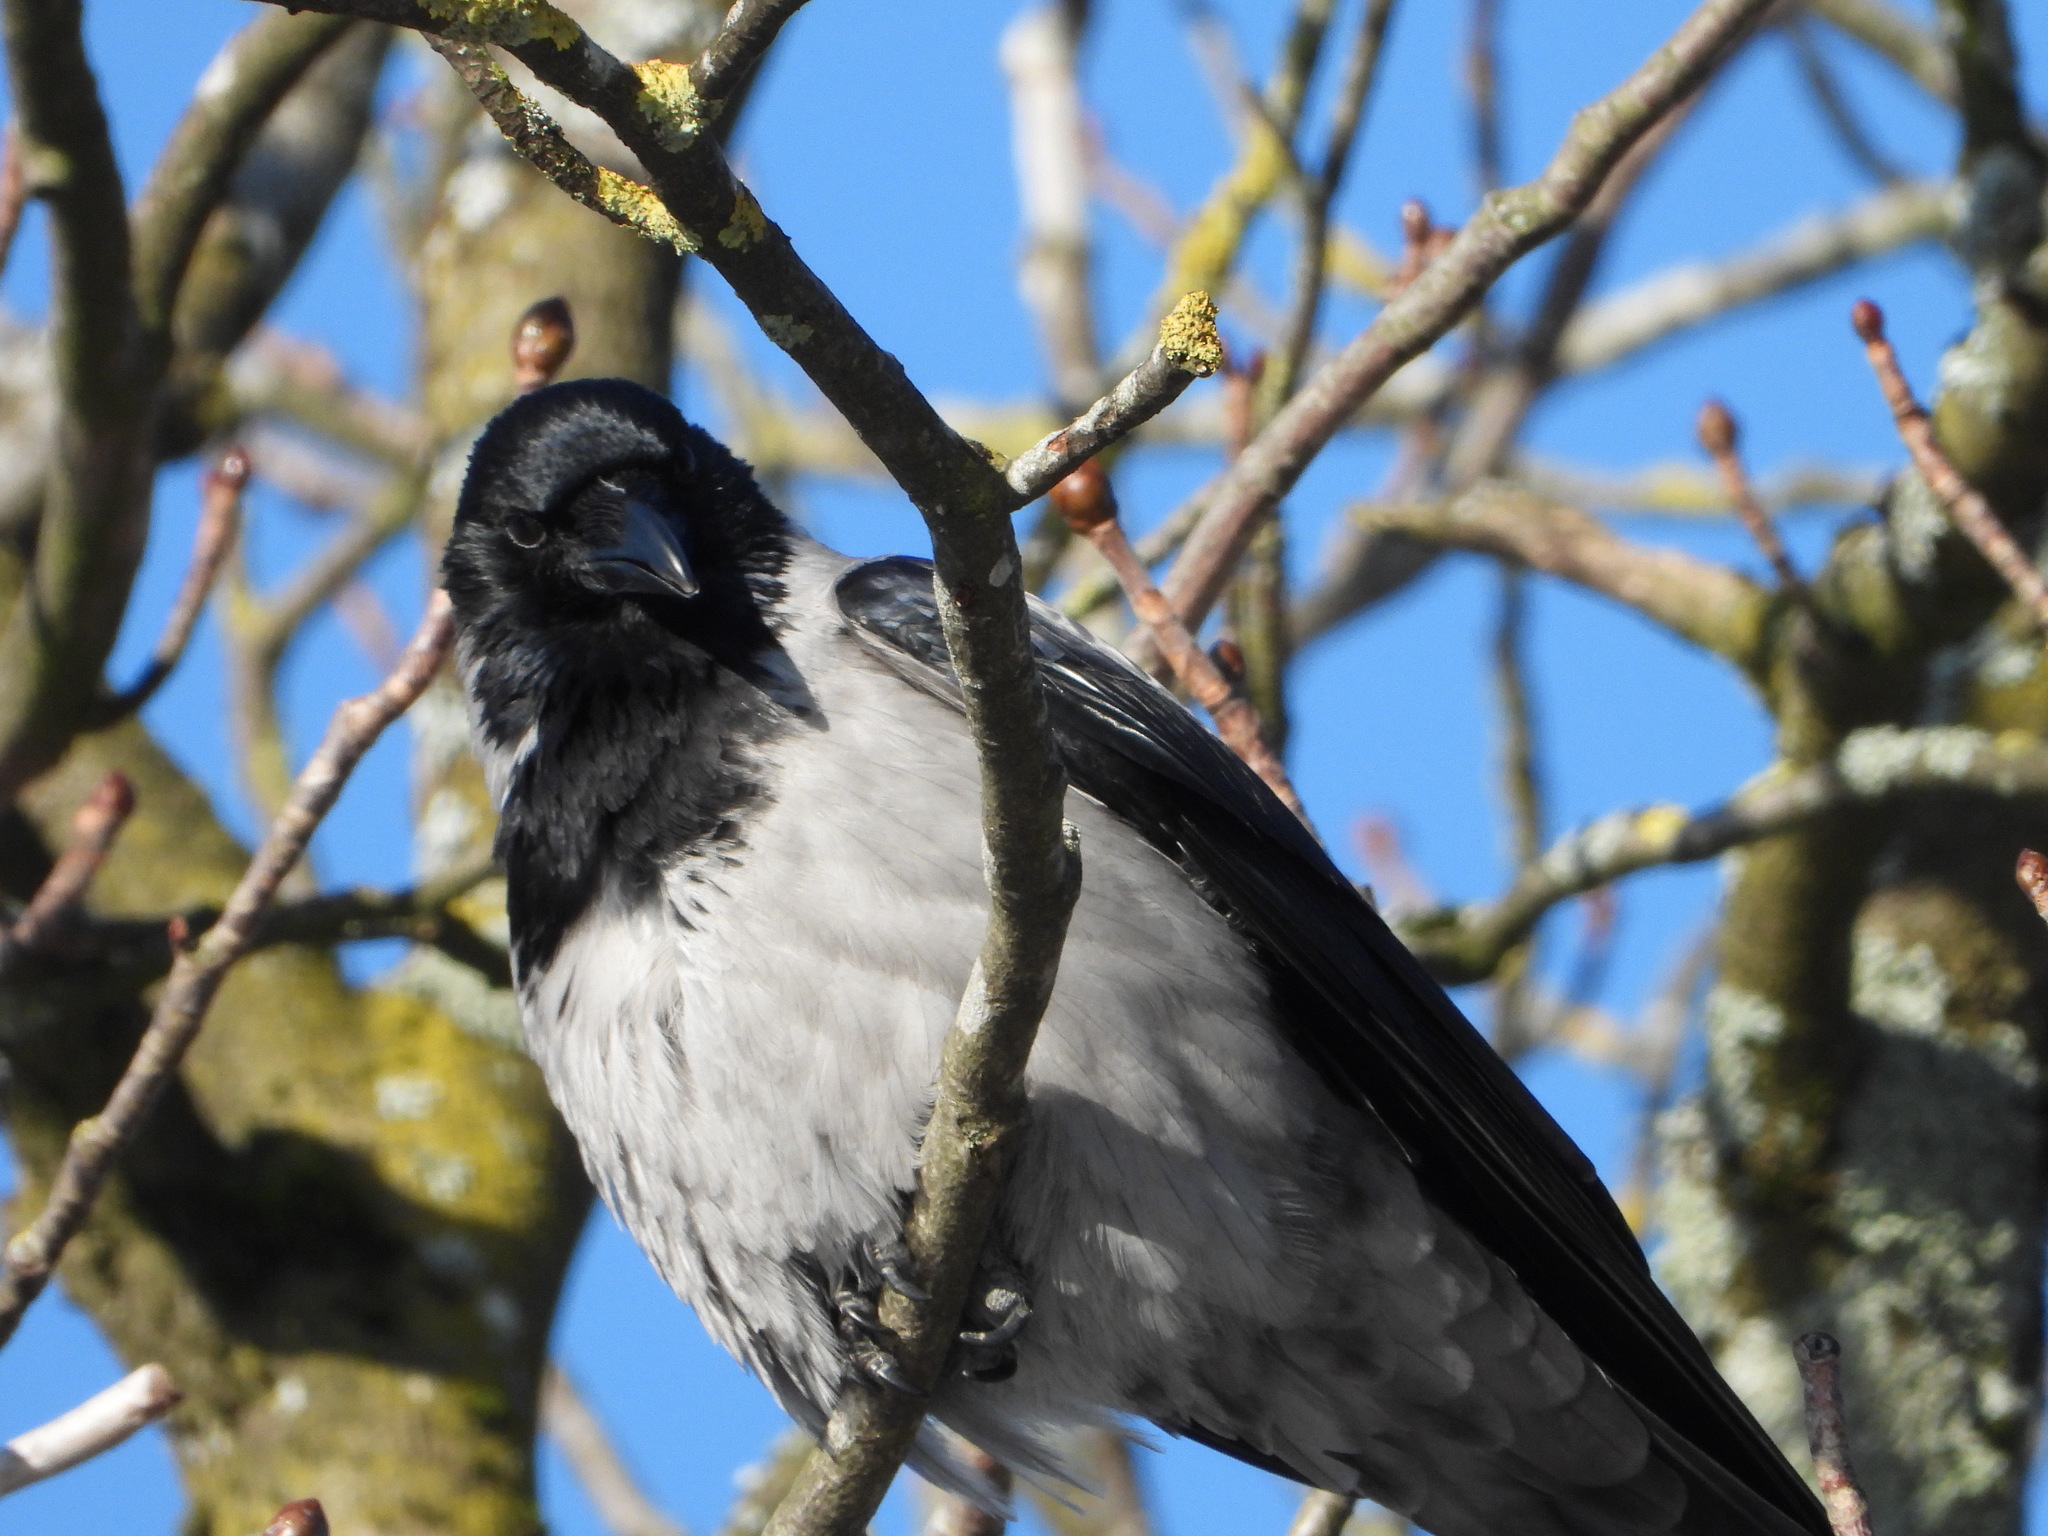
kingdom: Animalia
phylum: Chordata
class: Aves
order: Passeriformes
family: Corvidae
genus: Corvus
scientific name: Corvus cornix
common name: Hooded crow
